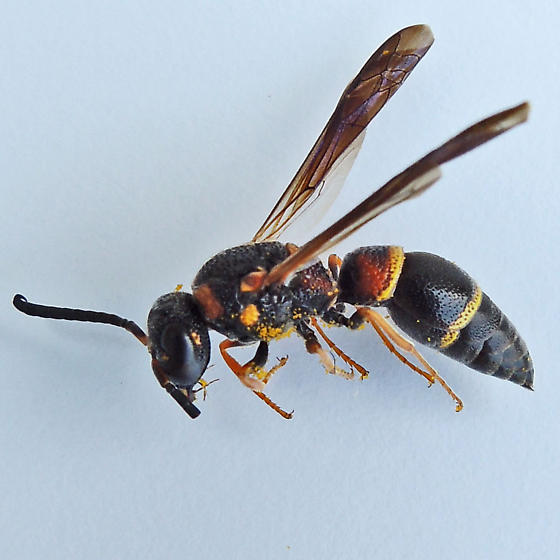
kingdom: Animalia
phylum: Arthropoda
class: Insecta
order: Hymenoptera
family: Eumenidae
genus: Parancistrocerus
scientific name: Parancistrocerus histrio
